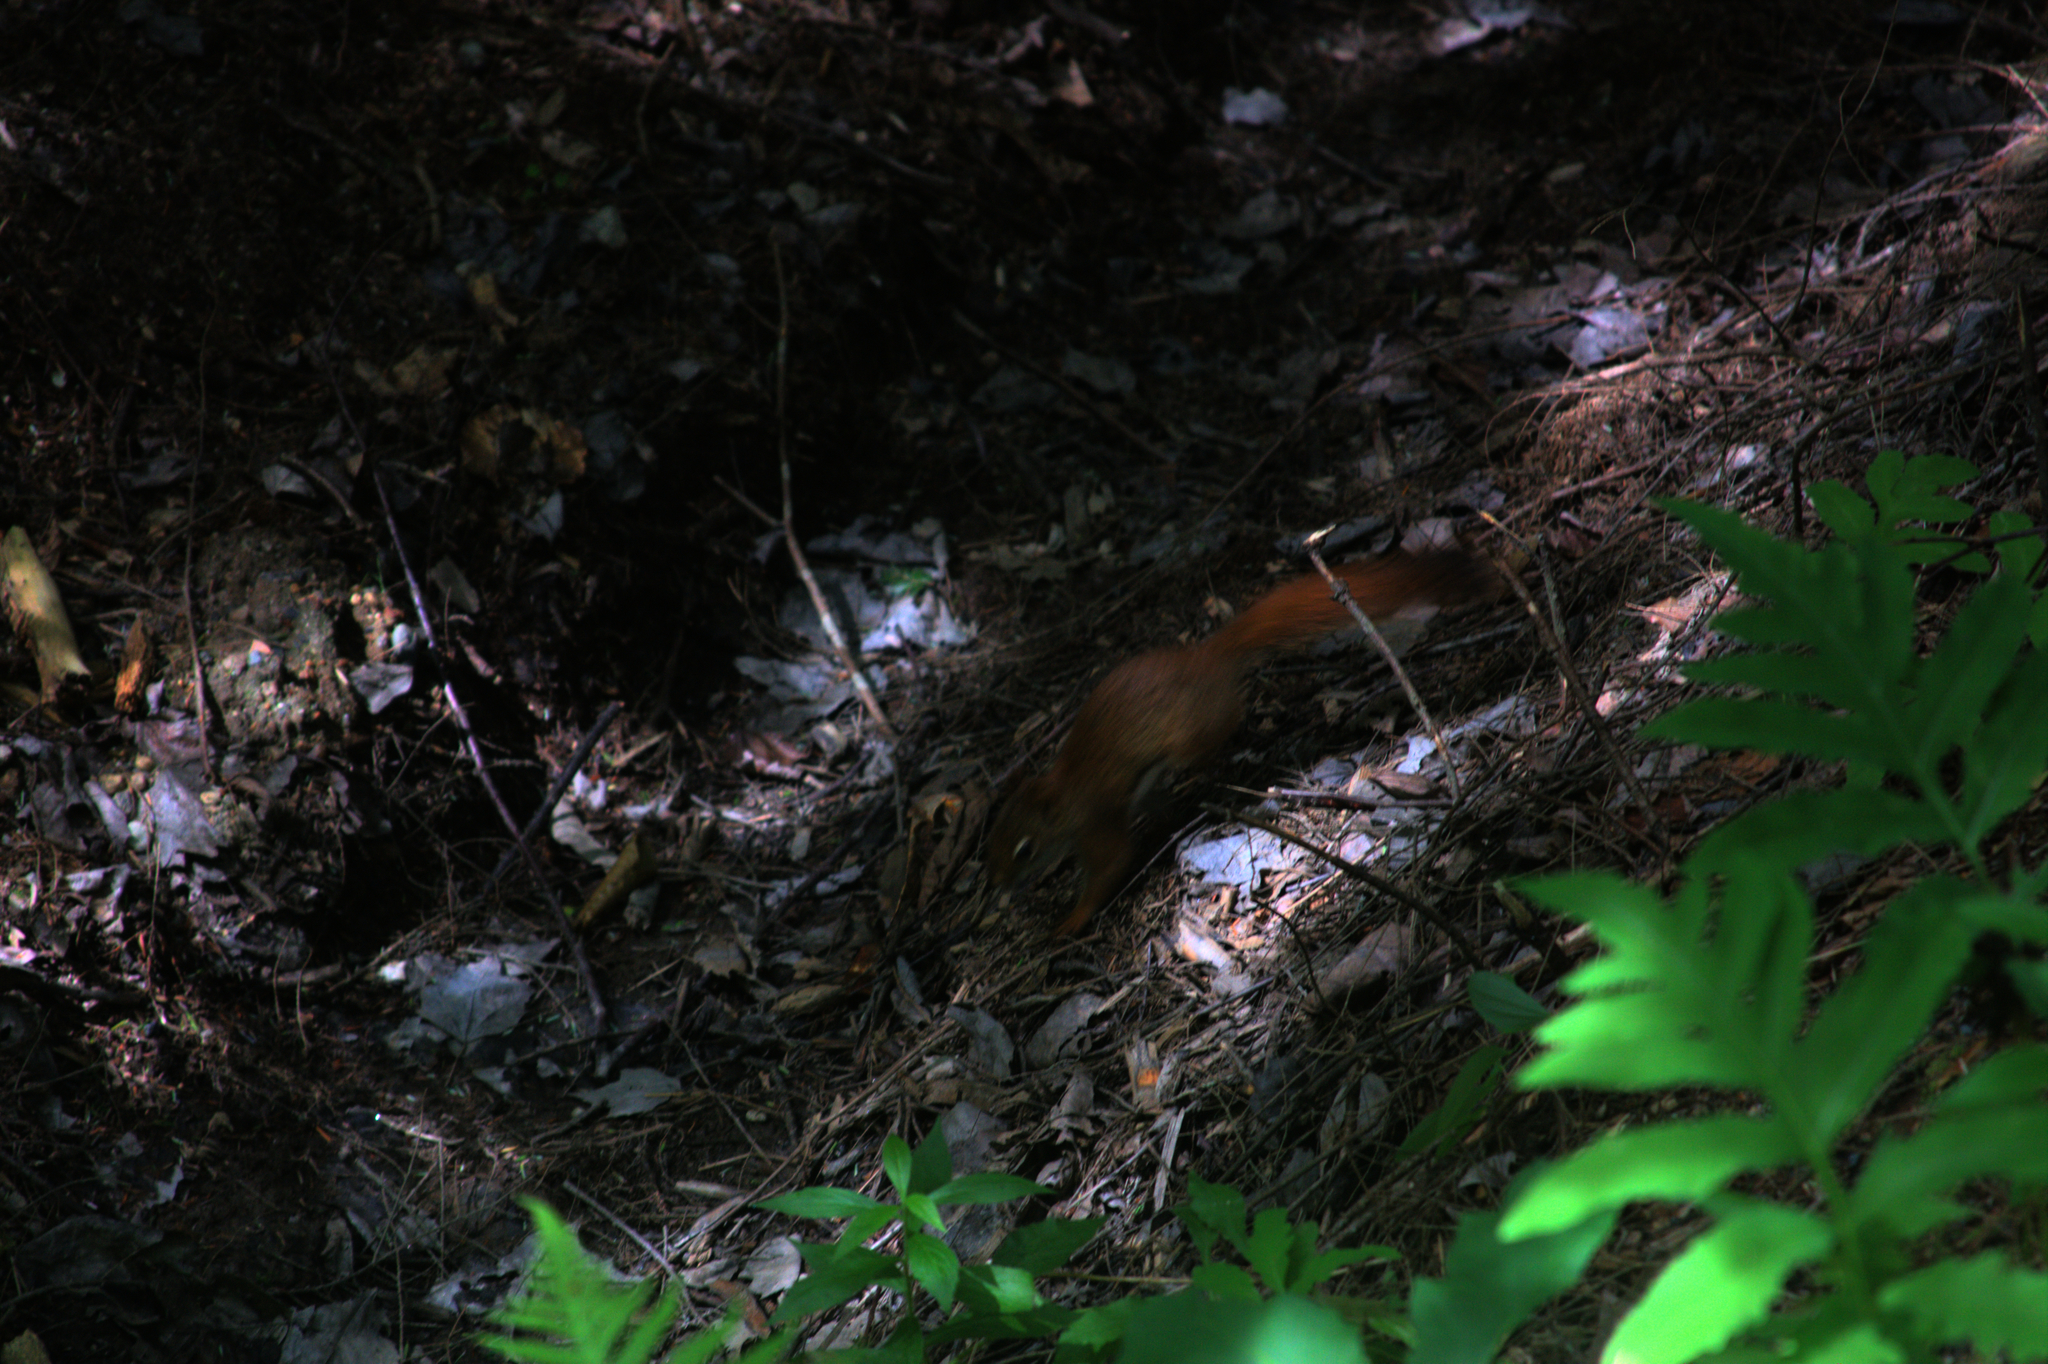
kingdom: Animalia
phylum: Chordata
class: Mammalia
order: Rodentia
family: Sciuridae
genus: Tamiasciurus
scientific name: Tamiasciurus hudsonicus
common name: Red squirrel
